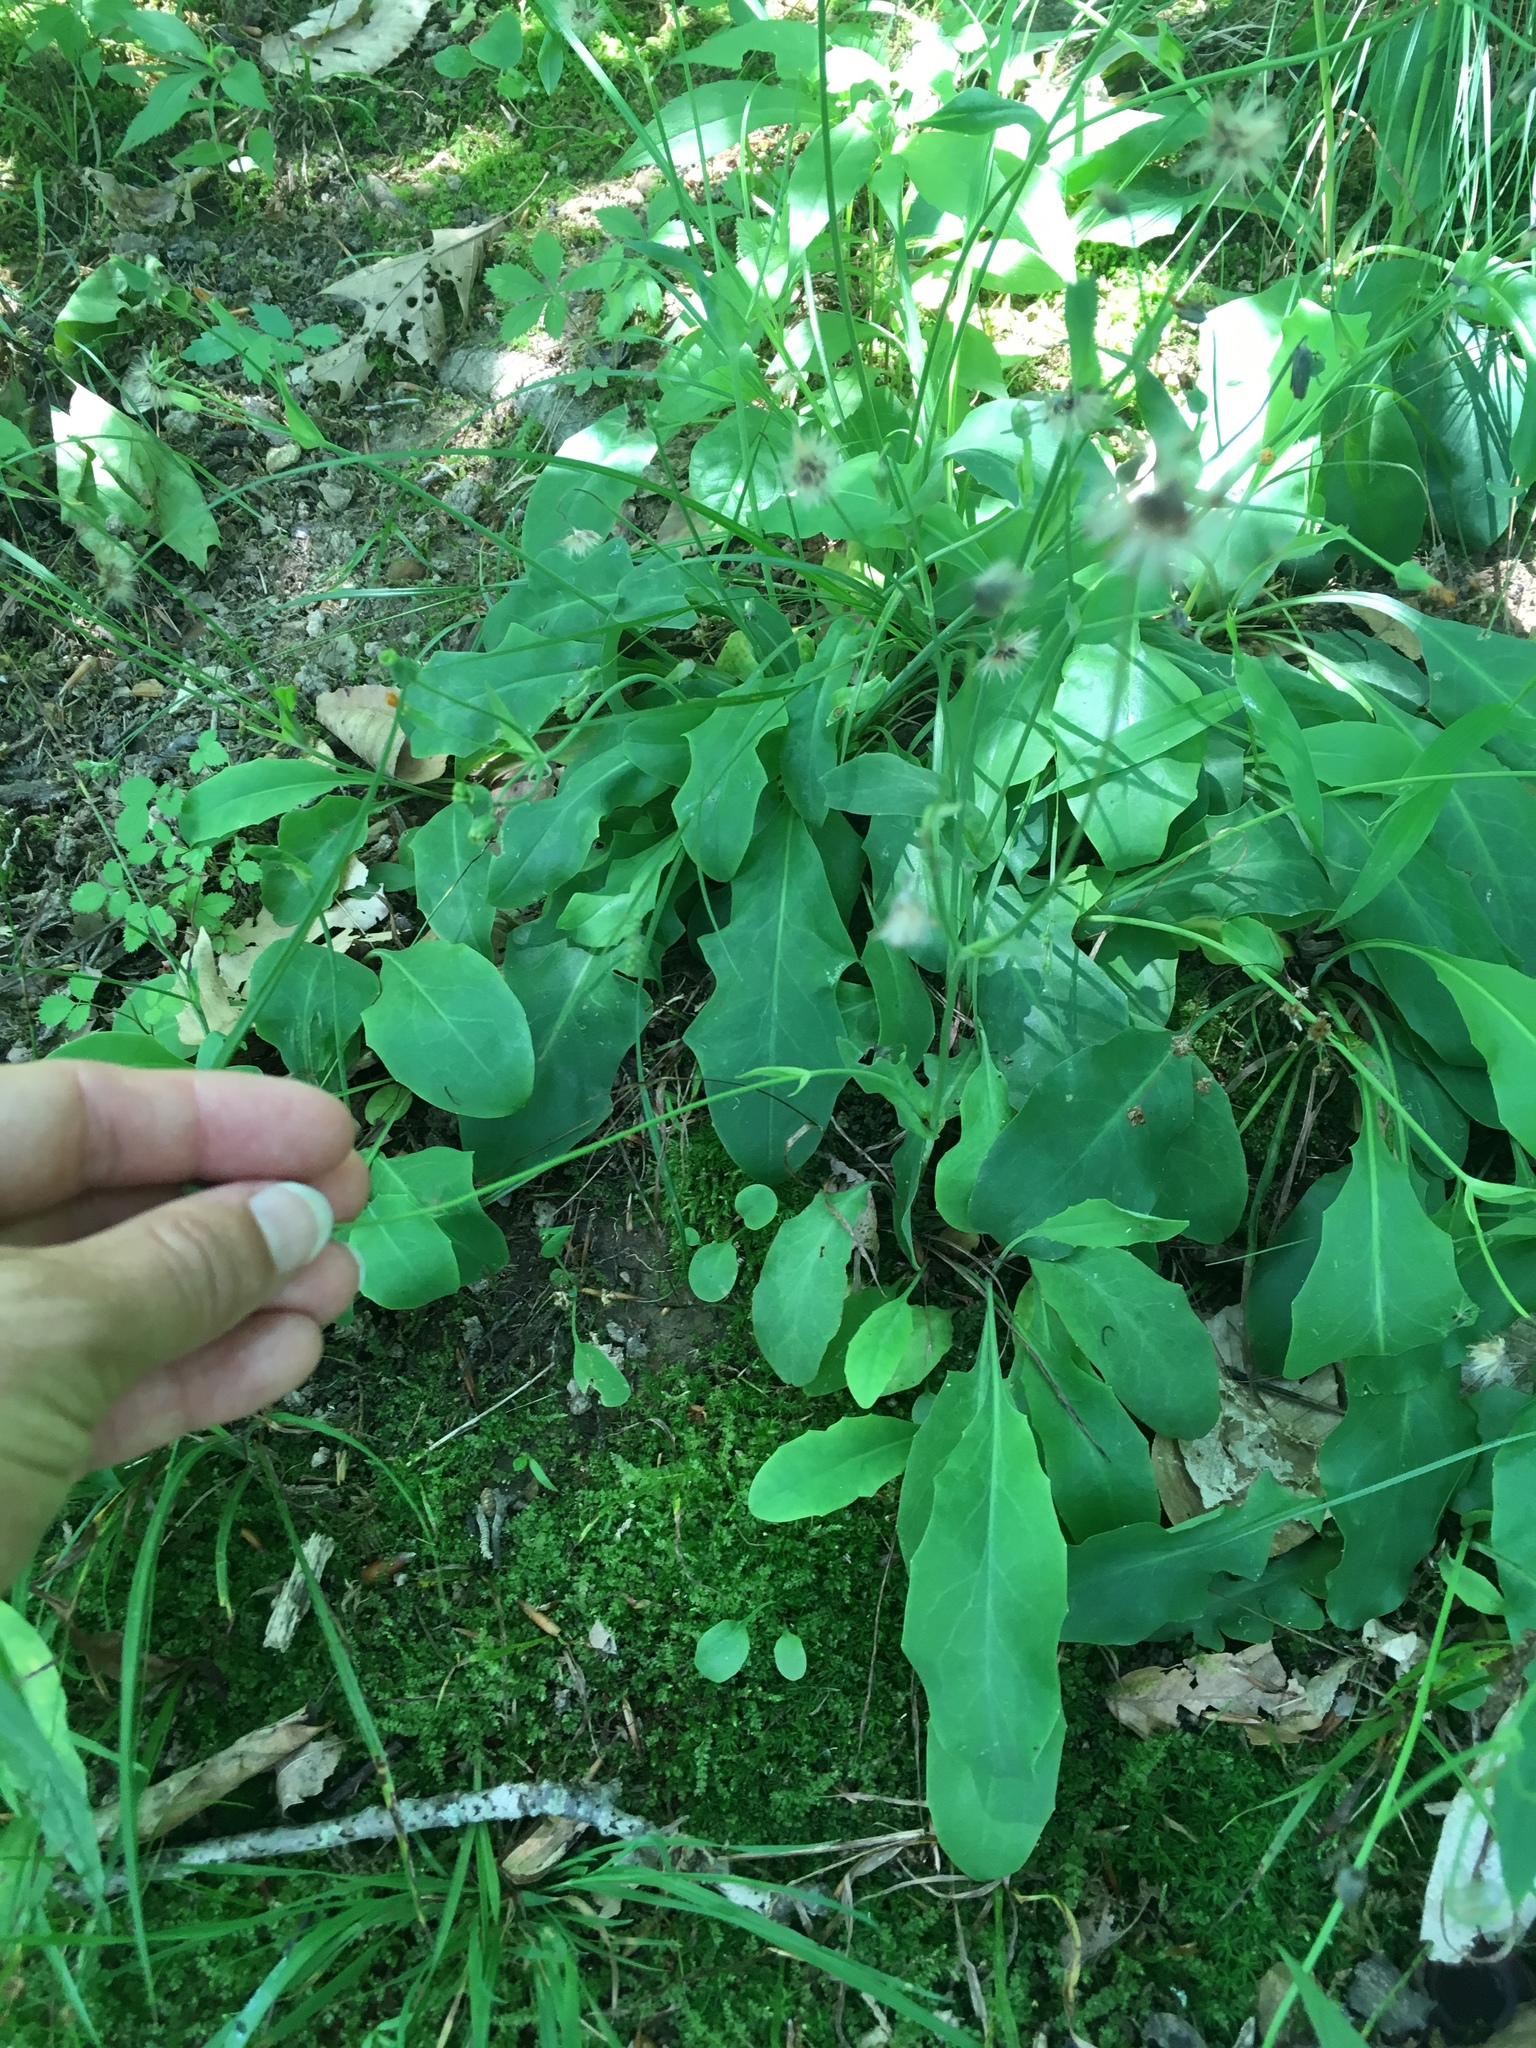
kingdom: Plantae
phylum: Tracheophyta
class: Magnoliopsida
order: Asterales
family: Asteraceae
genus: Krigia
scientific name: Krigia biflora
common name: Orange dwarf-dandelion
